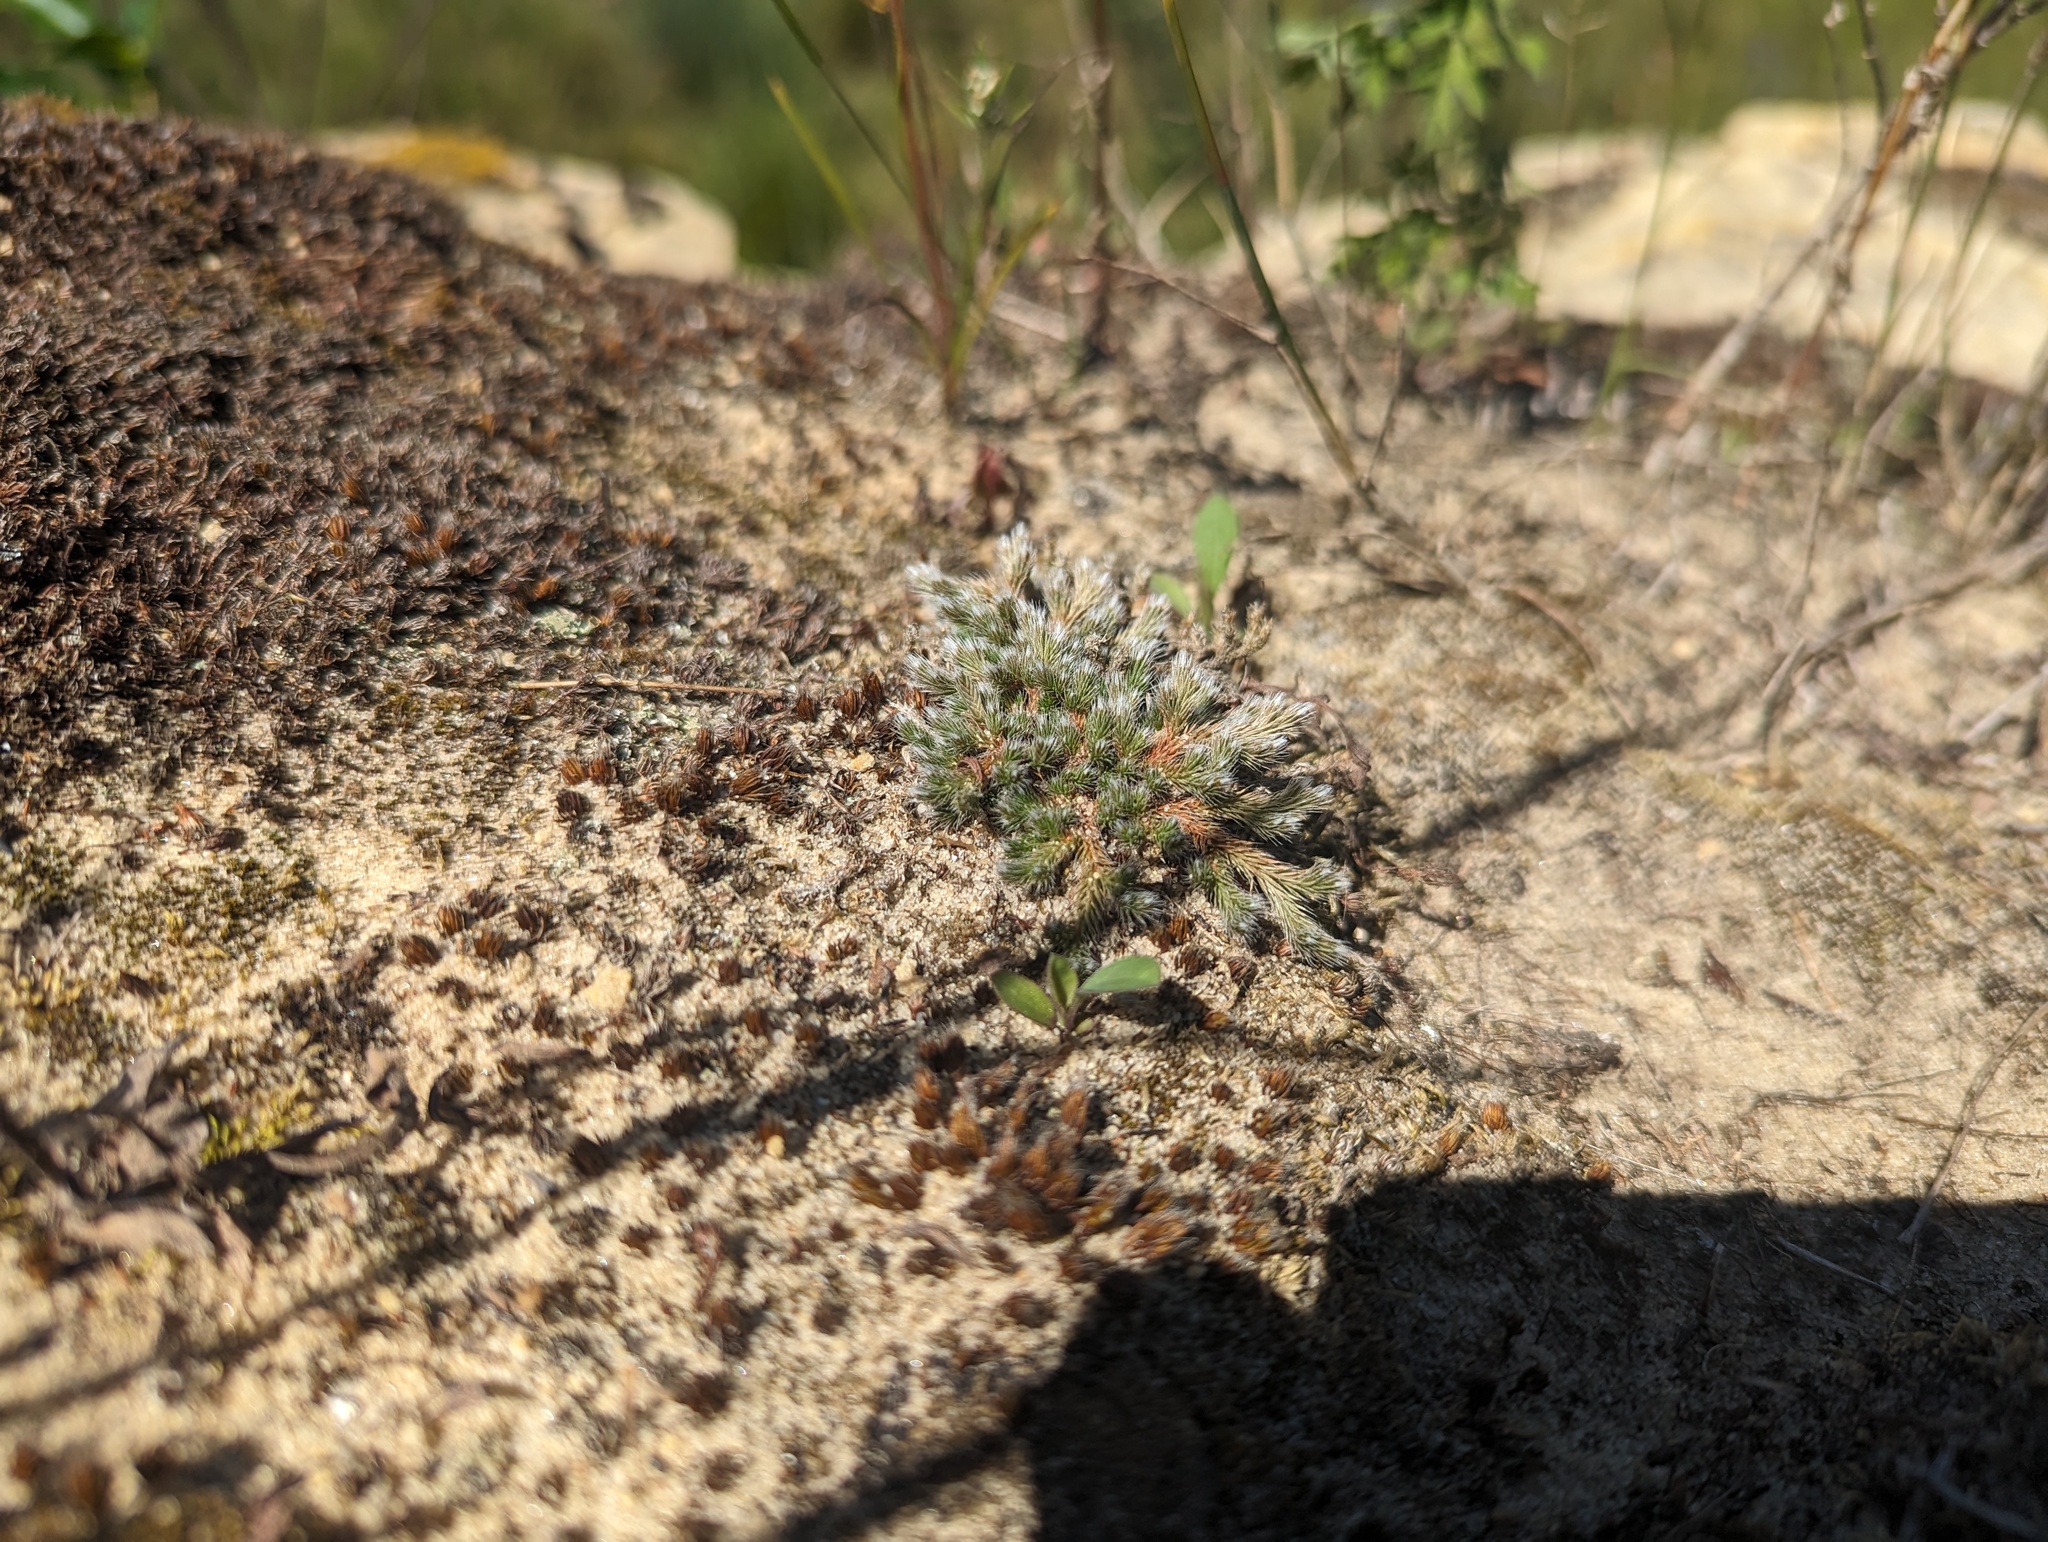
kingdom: Plantae
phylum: Tracheophyta
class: Lycopodiopsida
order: Selaginellales
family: Selaginellaceae
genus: Selaginella
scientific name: Selaginella rupestris
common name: Dwarf spikemoss
